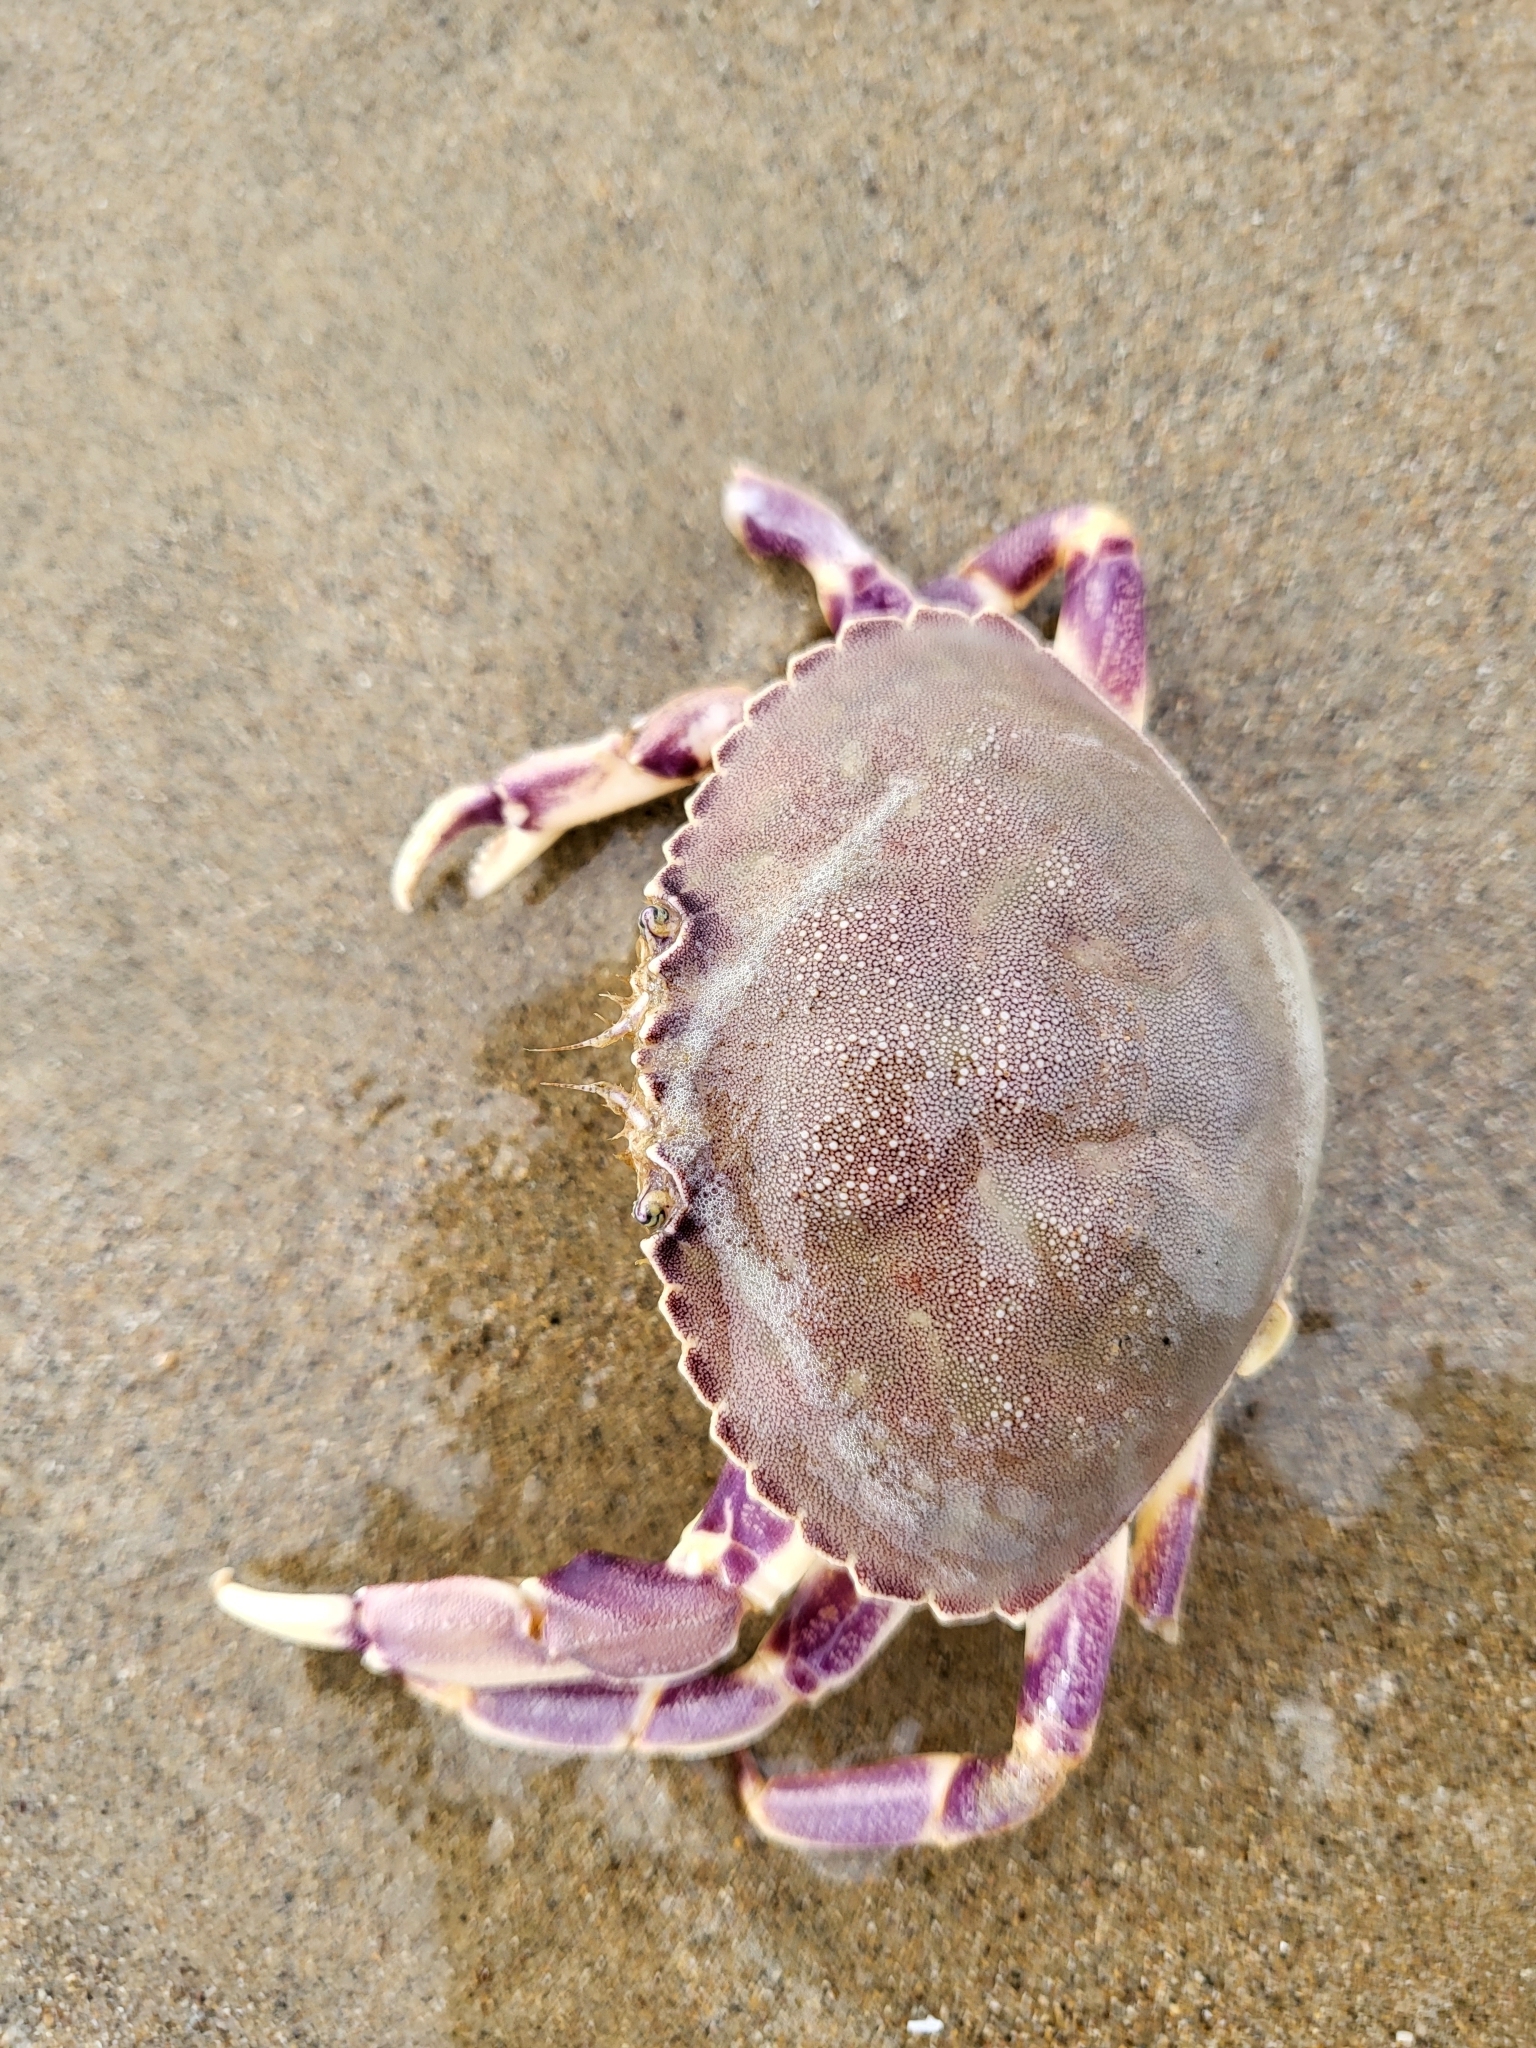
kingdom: Animalia
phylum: Arthropoda
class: Malacostraca
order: Decapoda
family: Cancridae
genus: Metacarcinus
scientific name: Metacarcinus gracilis
